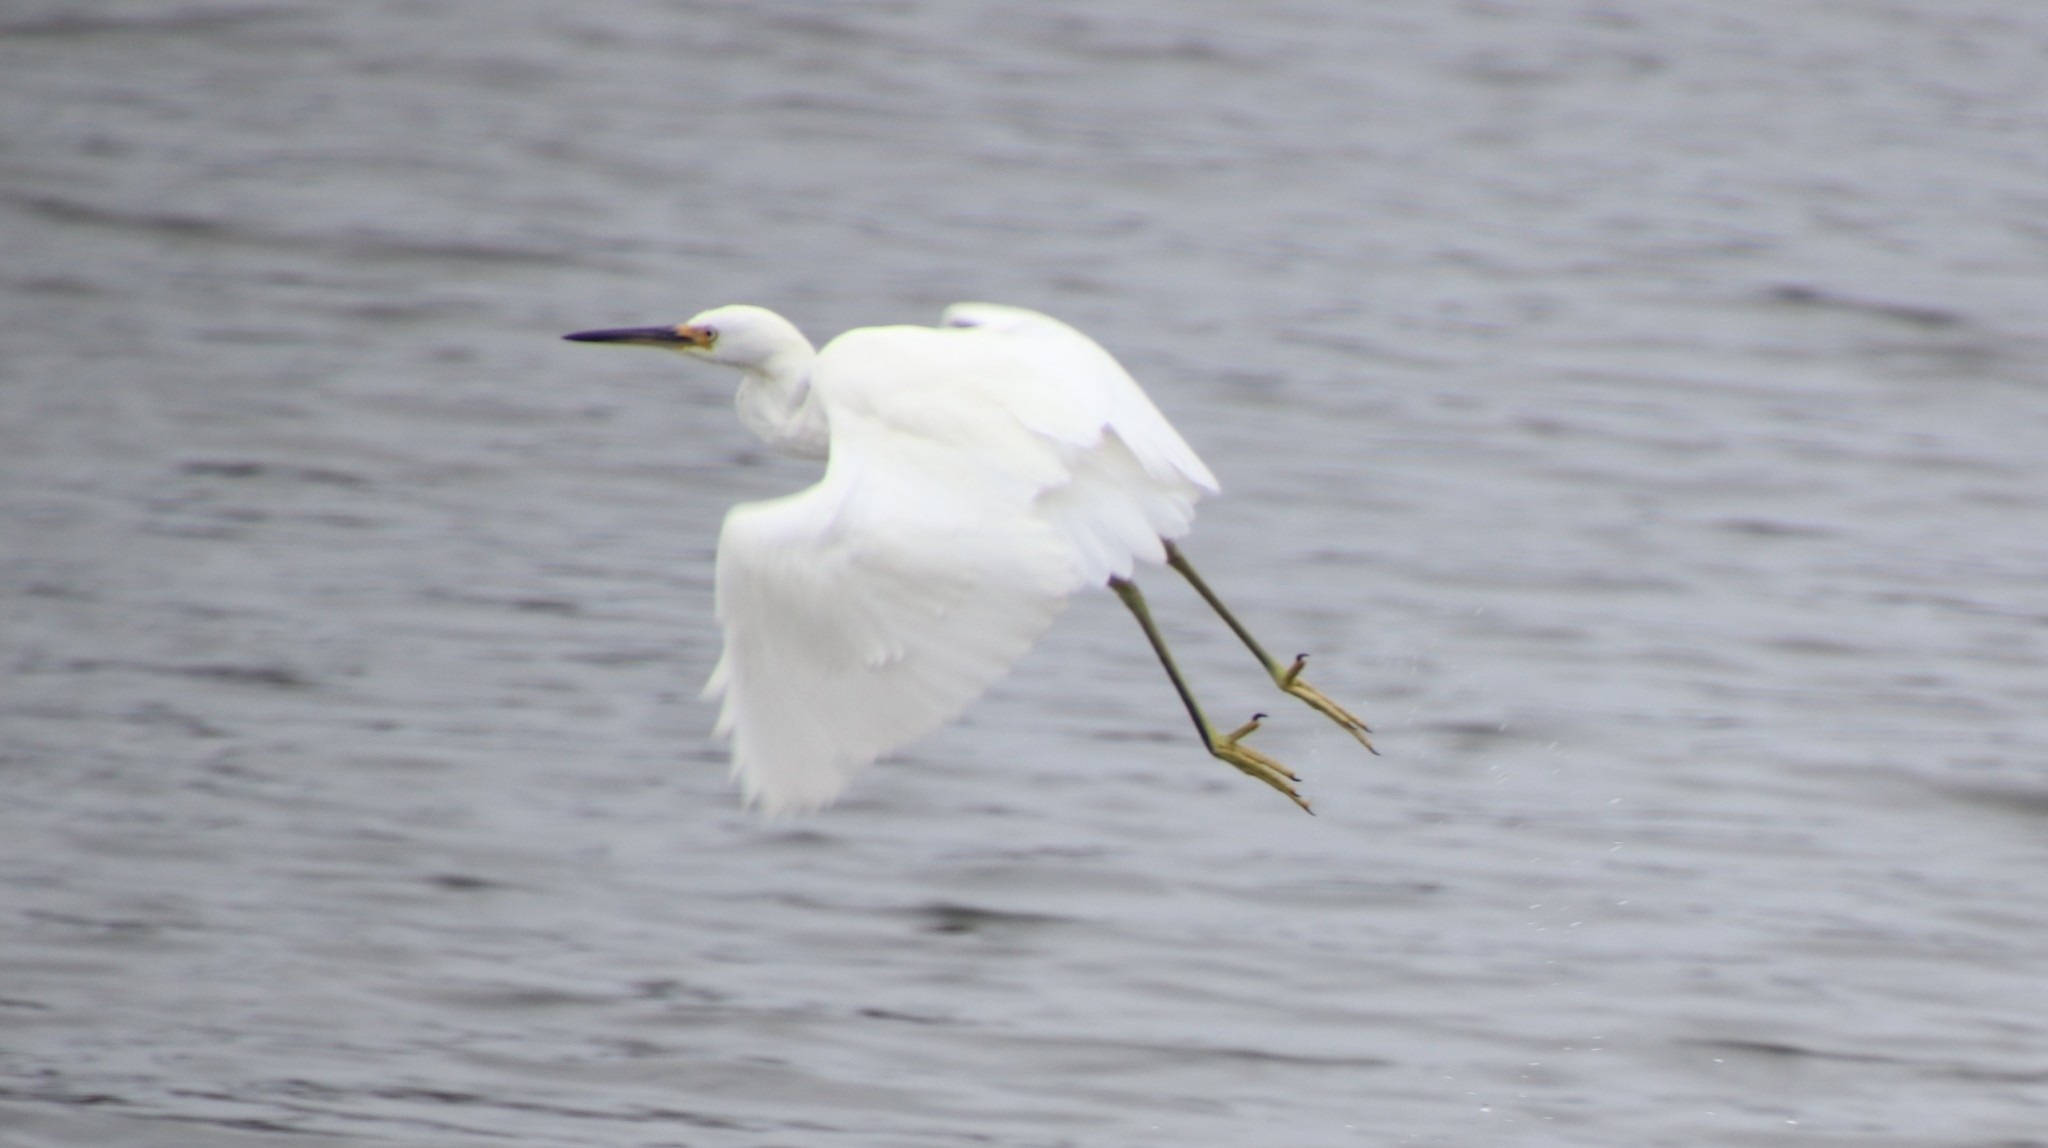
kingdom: Animalia
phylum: Chordata
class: Aves
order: Pelecaniformes
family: Ardeidae
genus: Egretta
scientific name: Egretta thula
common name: Snowy egret
